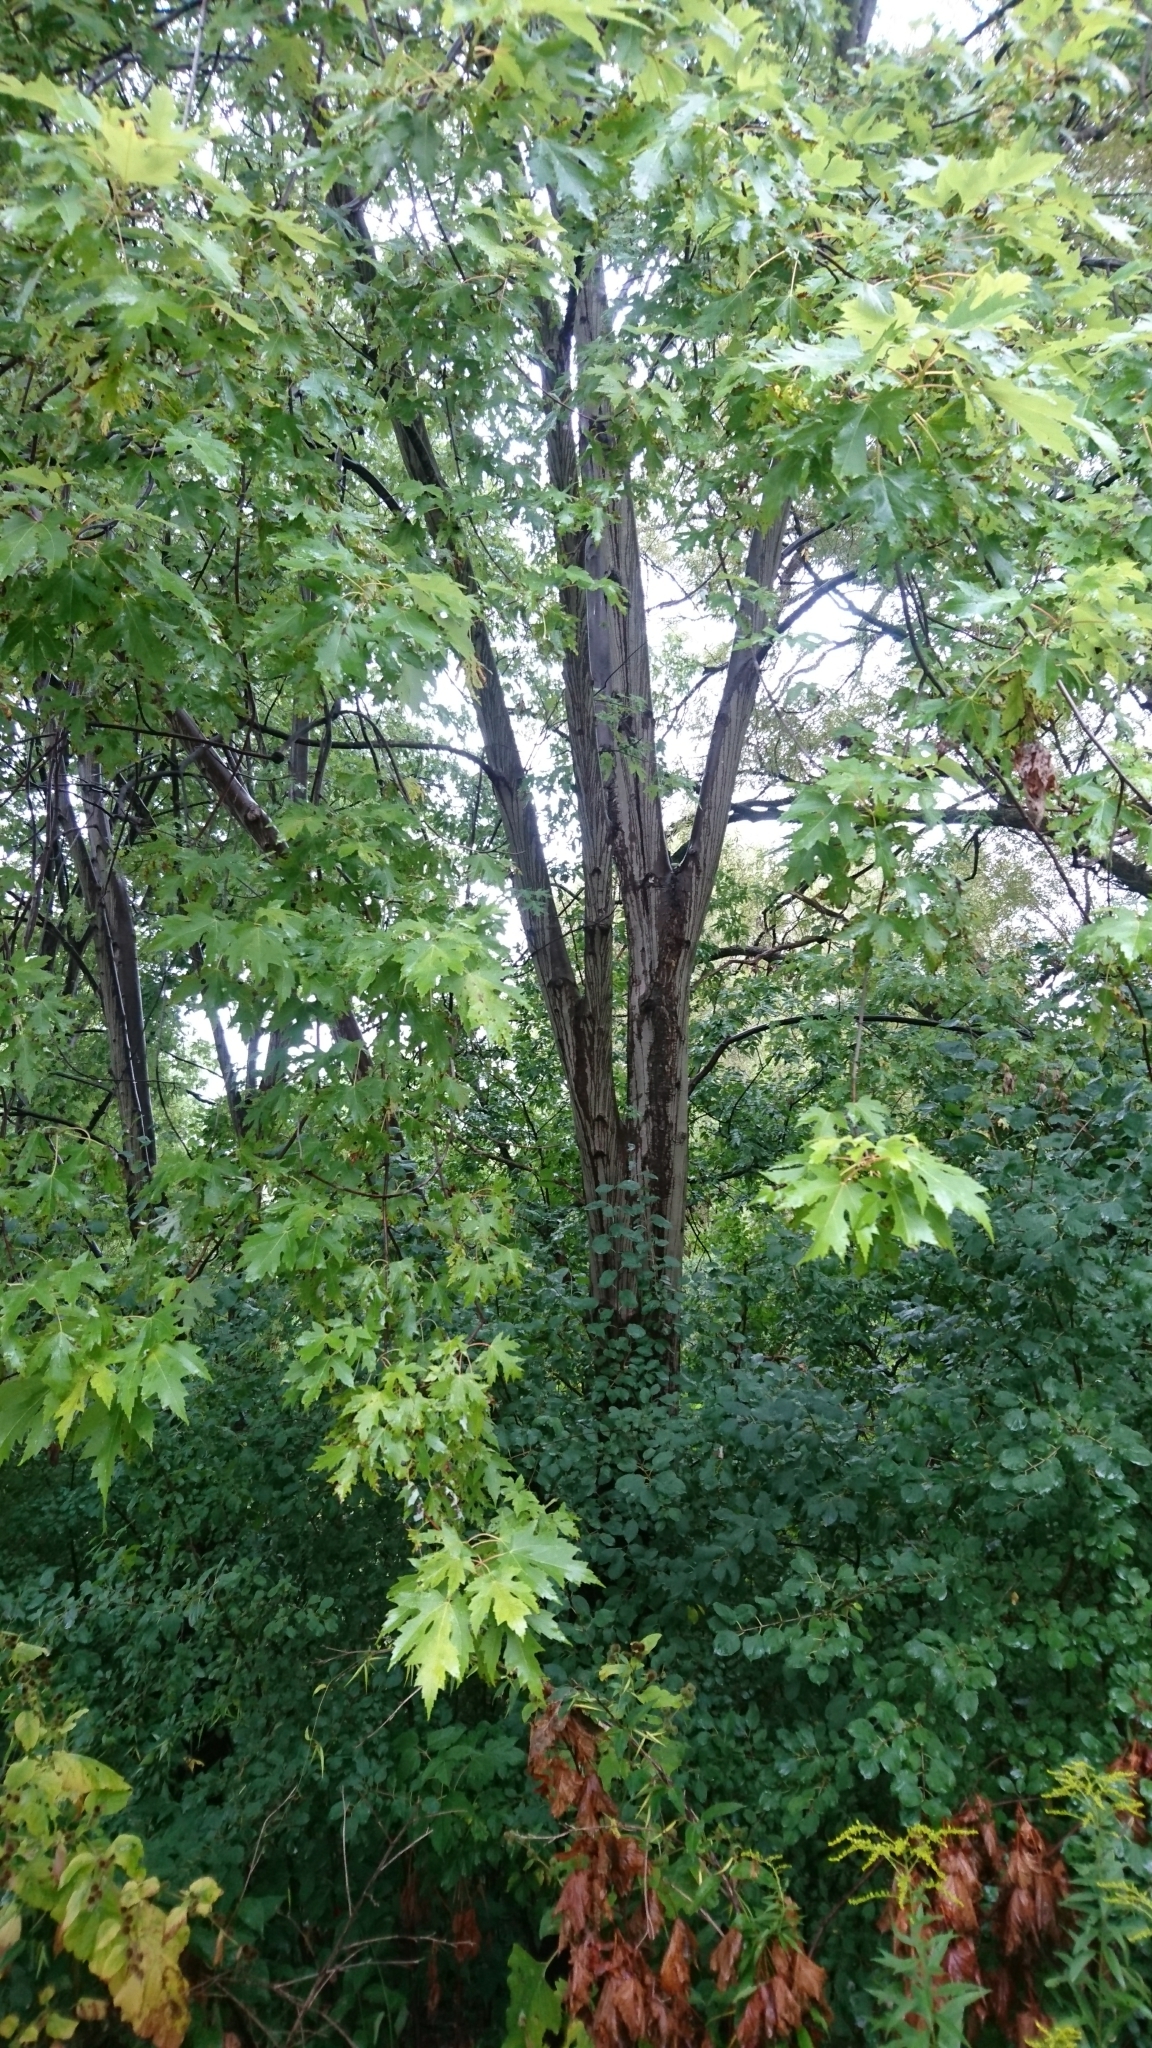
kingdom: Plantae
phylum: Tracheophyta
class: Magnoliopsida
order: Sapindales
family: Sapindaceae
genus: Acer
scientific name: Acer saccharinum
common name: Silver maple
